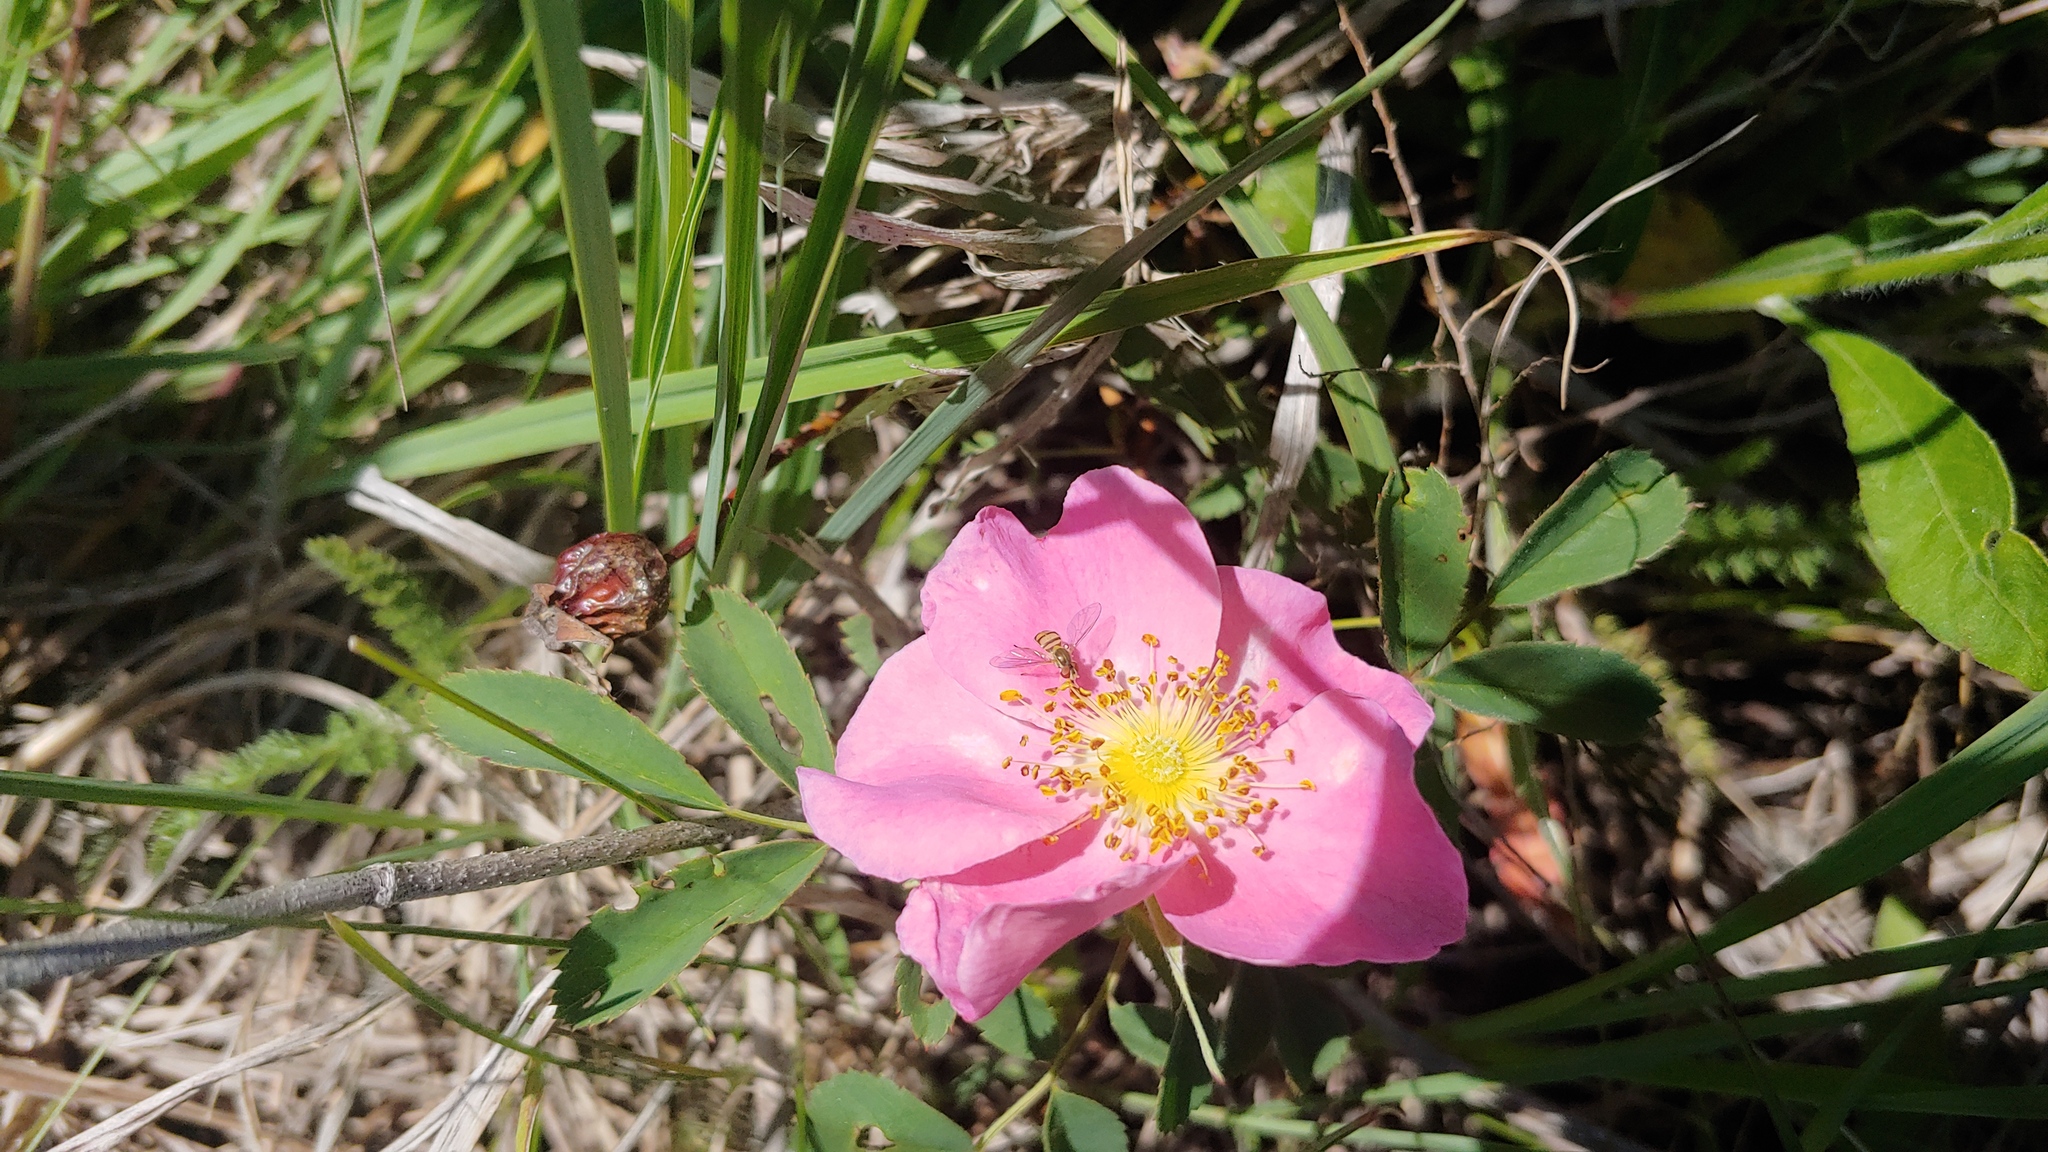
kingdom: Animalia
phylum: Arthropoda
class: Insecta
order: Diptera
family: Syrphidae
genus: Toxomerus
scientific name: Toxomerus marginatus
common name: Syrphid fly
